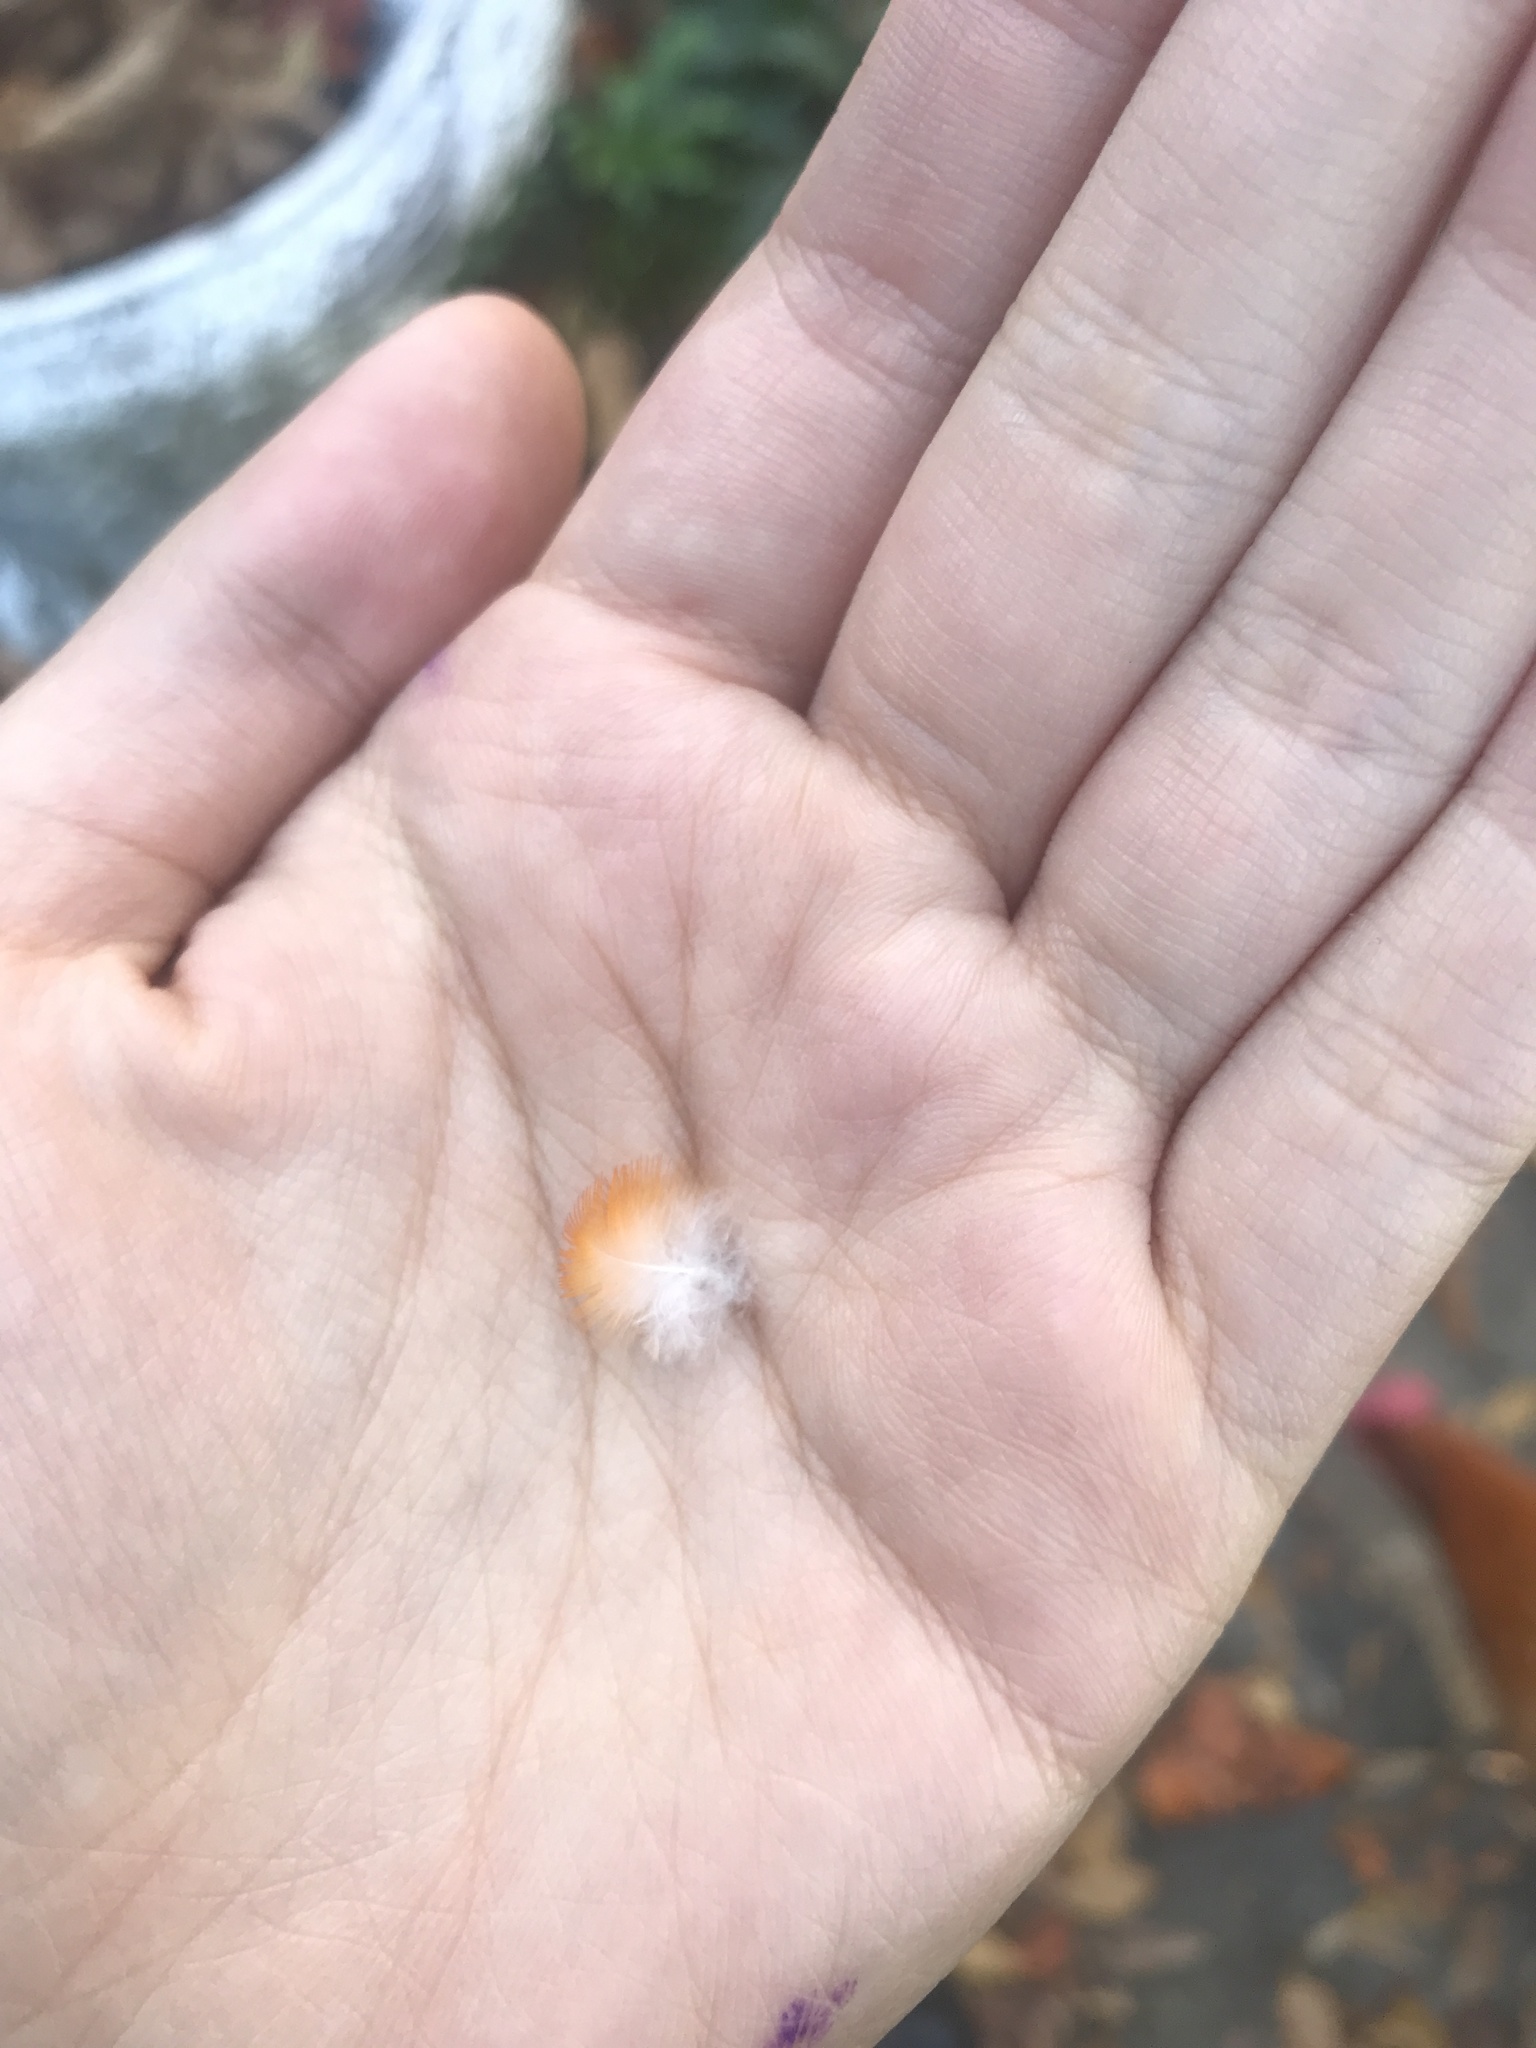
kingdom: Animalia
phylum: Chordata
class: Aves
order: Passeriformes
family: Icteridae
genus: Icterus
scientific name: Icterus galbula
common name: Baltimore oriole
